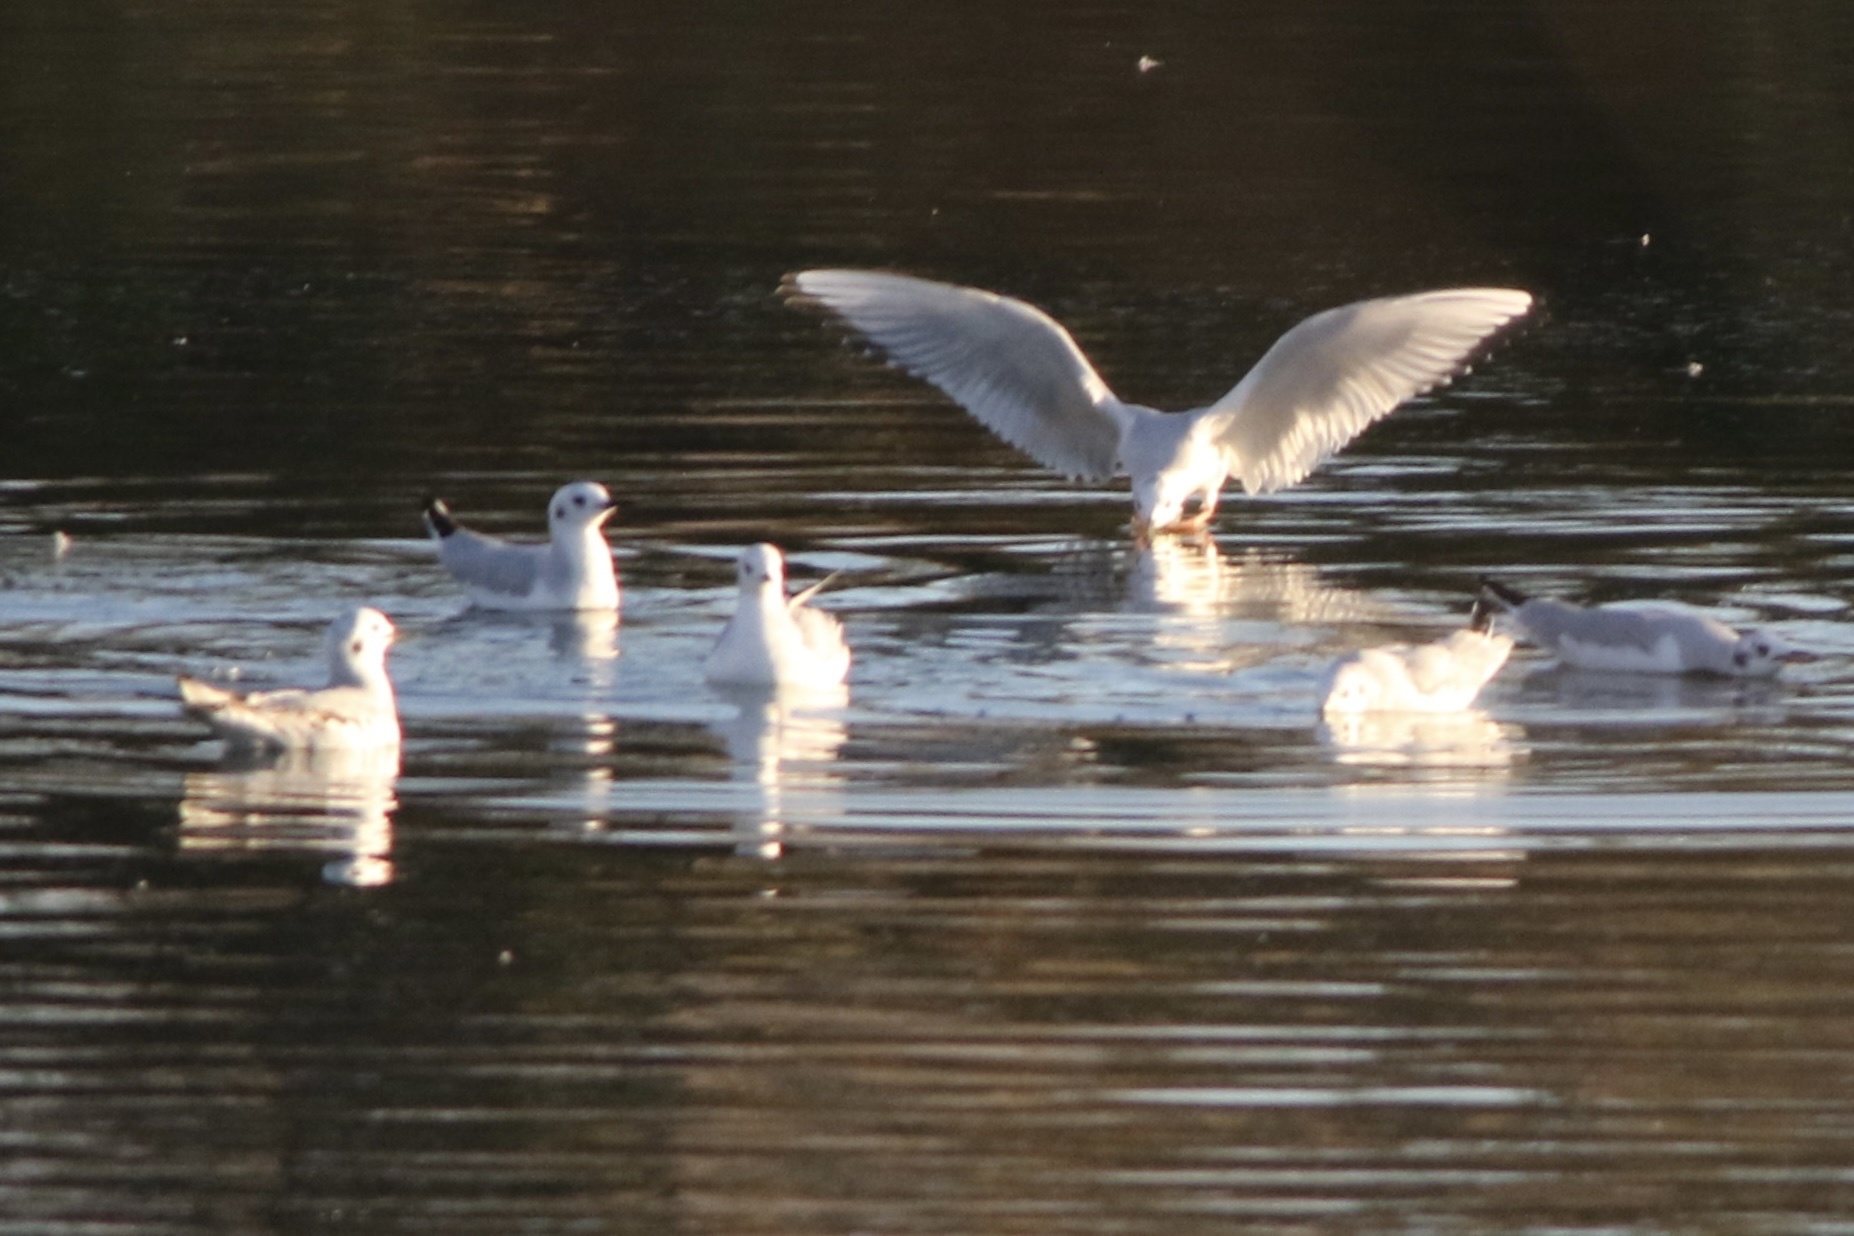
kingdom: Animalia
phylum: Chordata
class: Aves
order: Charadriiformes
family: Laridae
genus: Chroicocephalus
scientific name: Chroicocephalus philadelphia
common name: Bonaparte's gull
